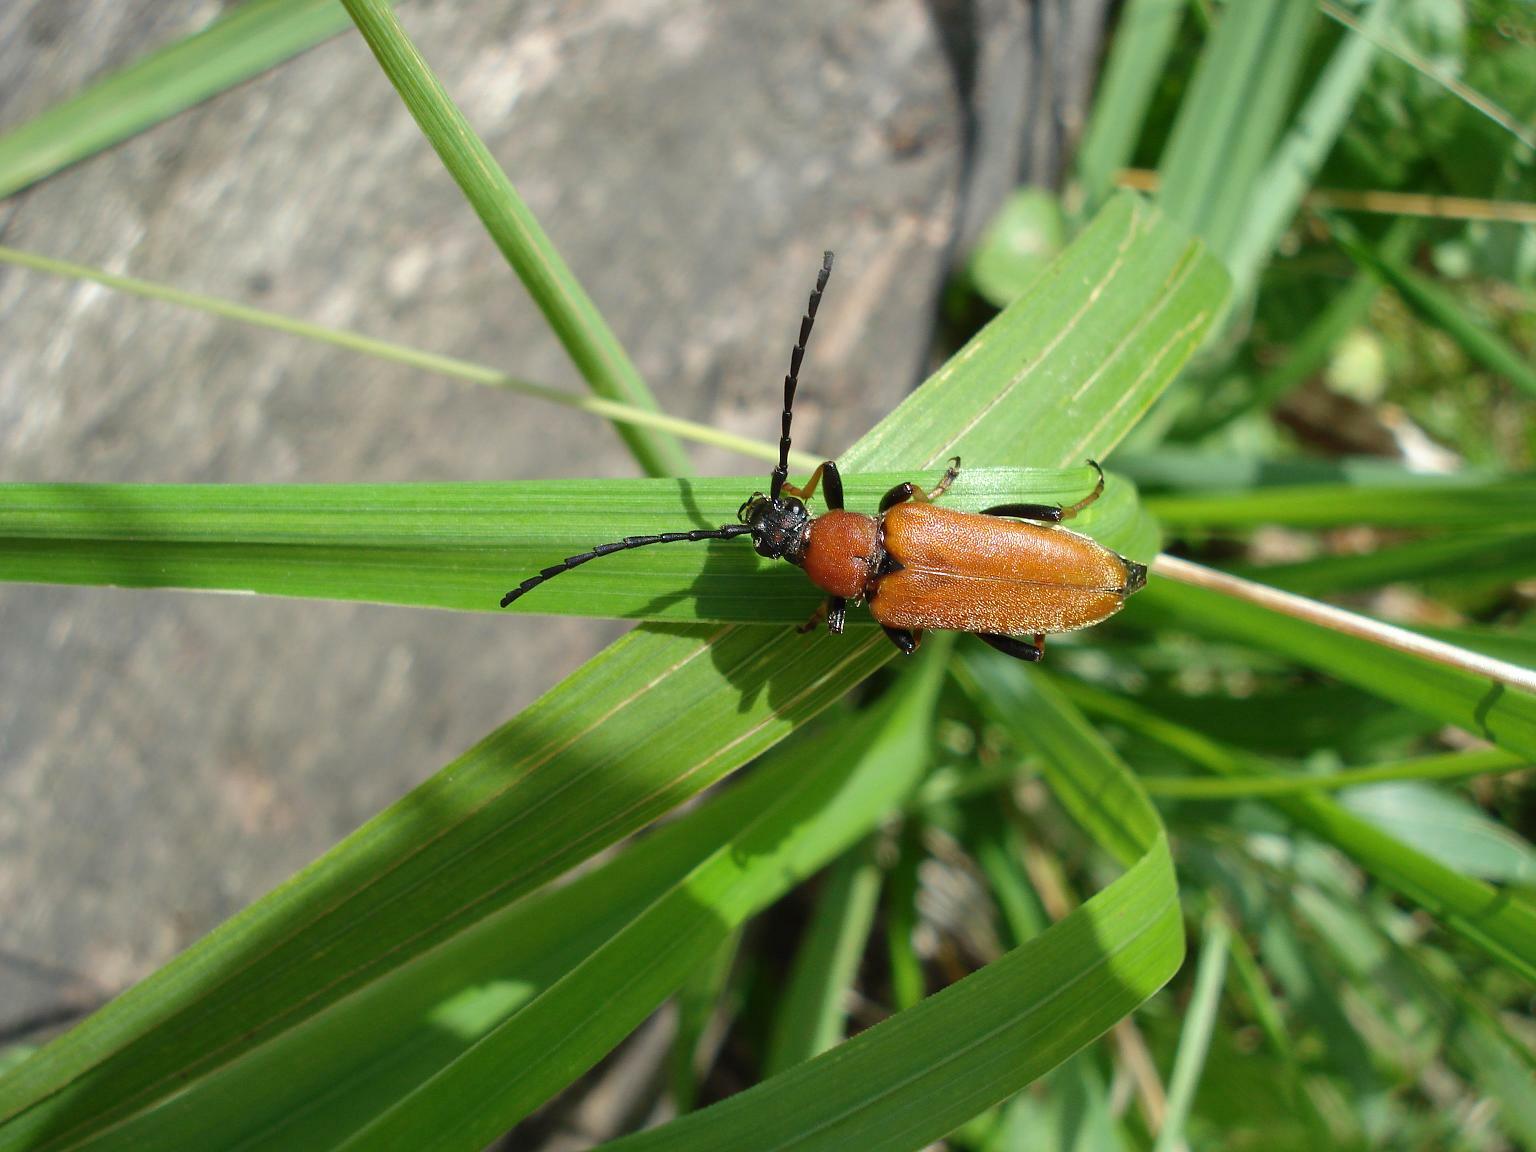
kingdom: Animalia
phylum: Arthropoda
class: Insecta
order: Coleoptera
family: Cerambycidae
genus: Stictoleptura
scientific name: Stictoleptura rubra
